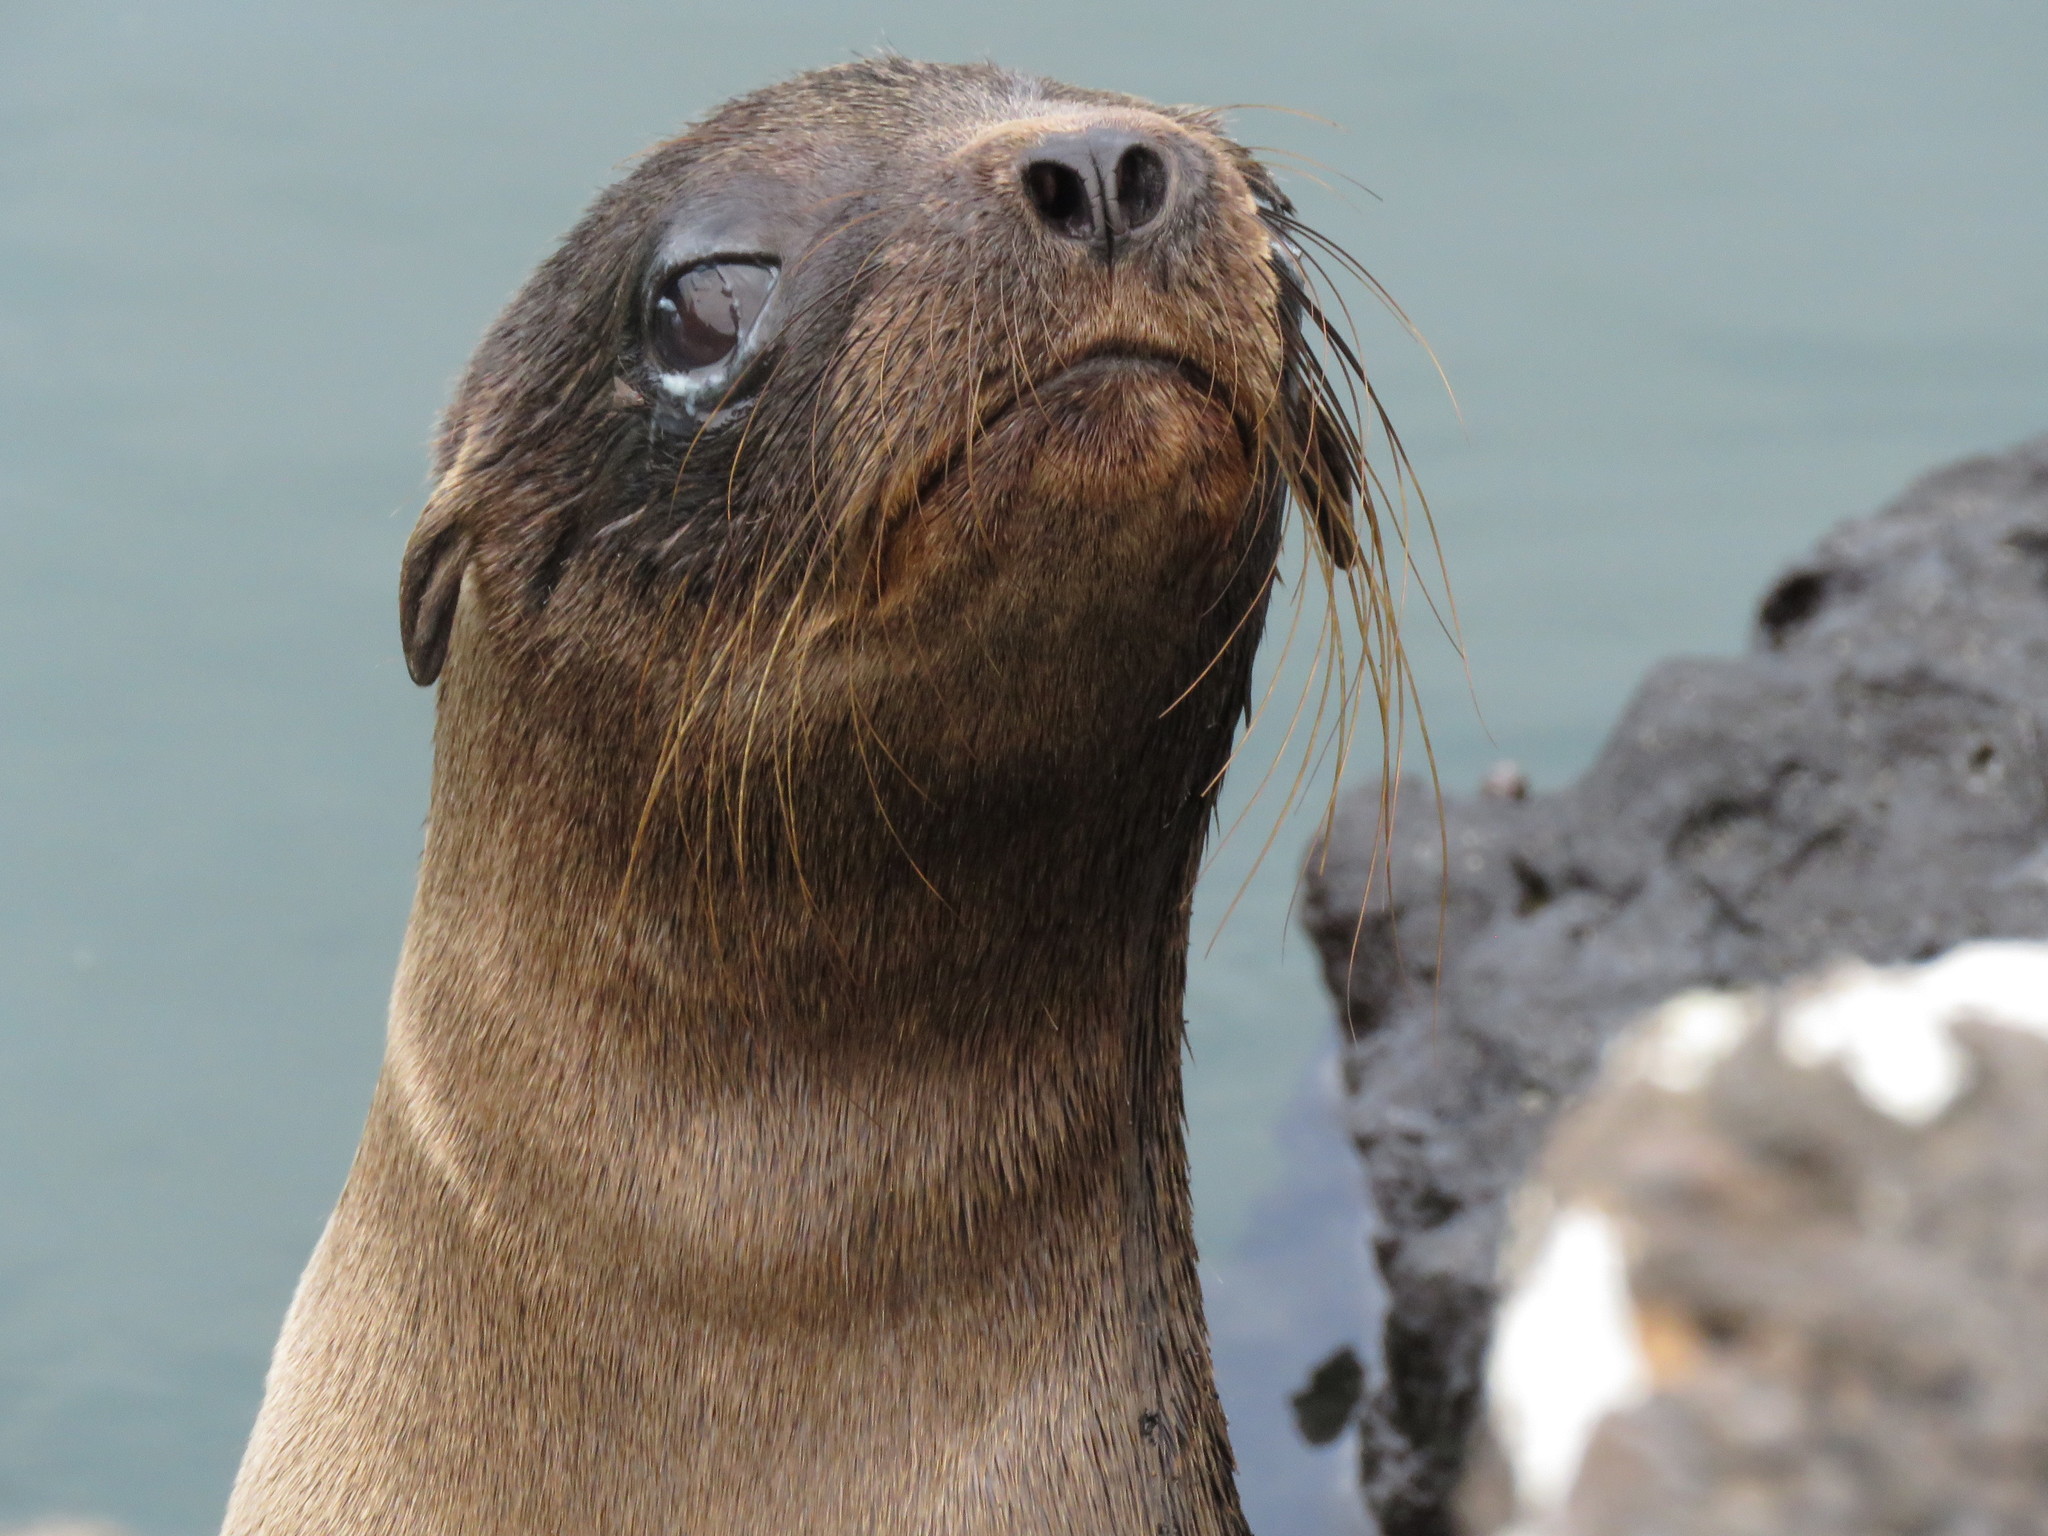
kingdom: Animalia
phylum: Chordata
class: Mammalia
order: Carnivora
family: Otariidae
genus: Zalophus
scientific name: Zalophus wollebaeki
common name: Galapagos sea lion
